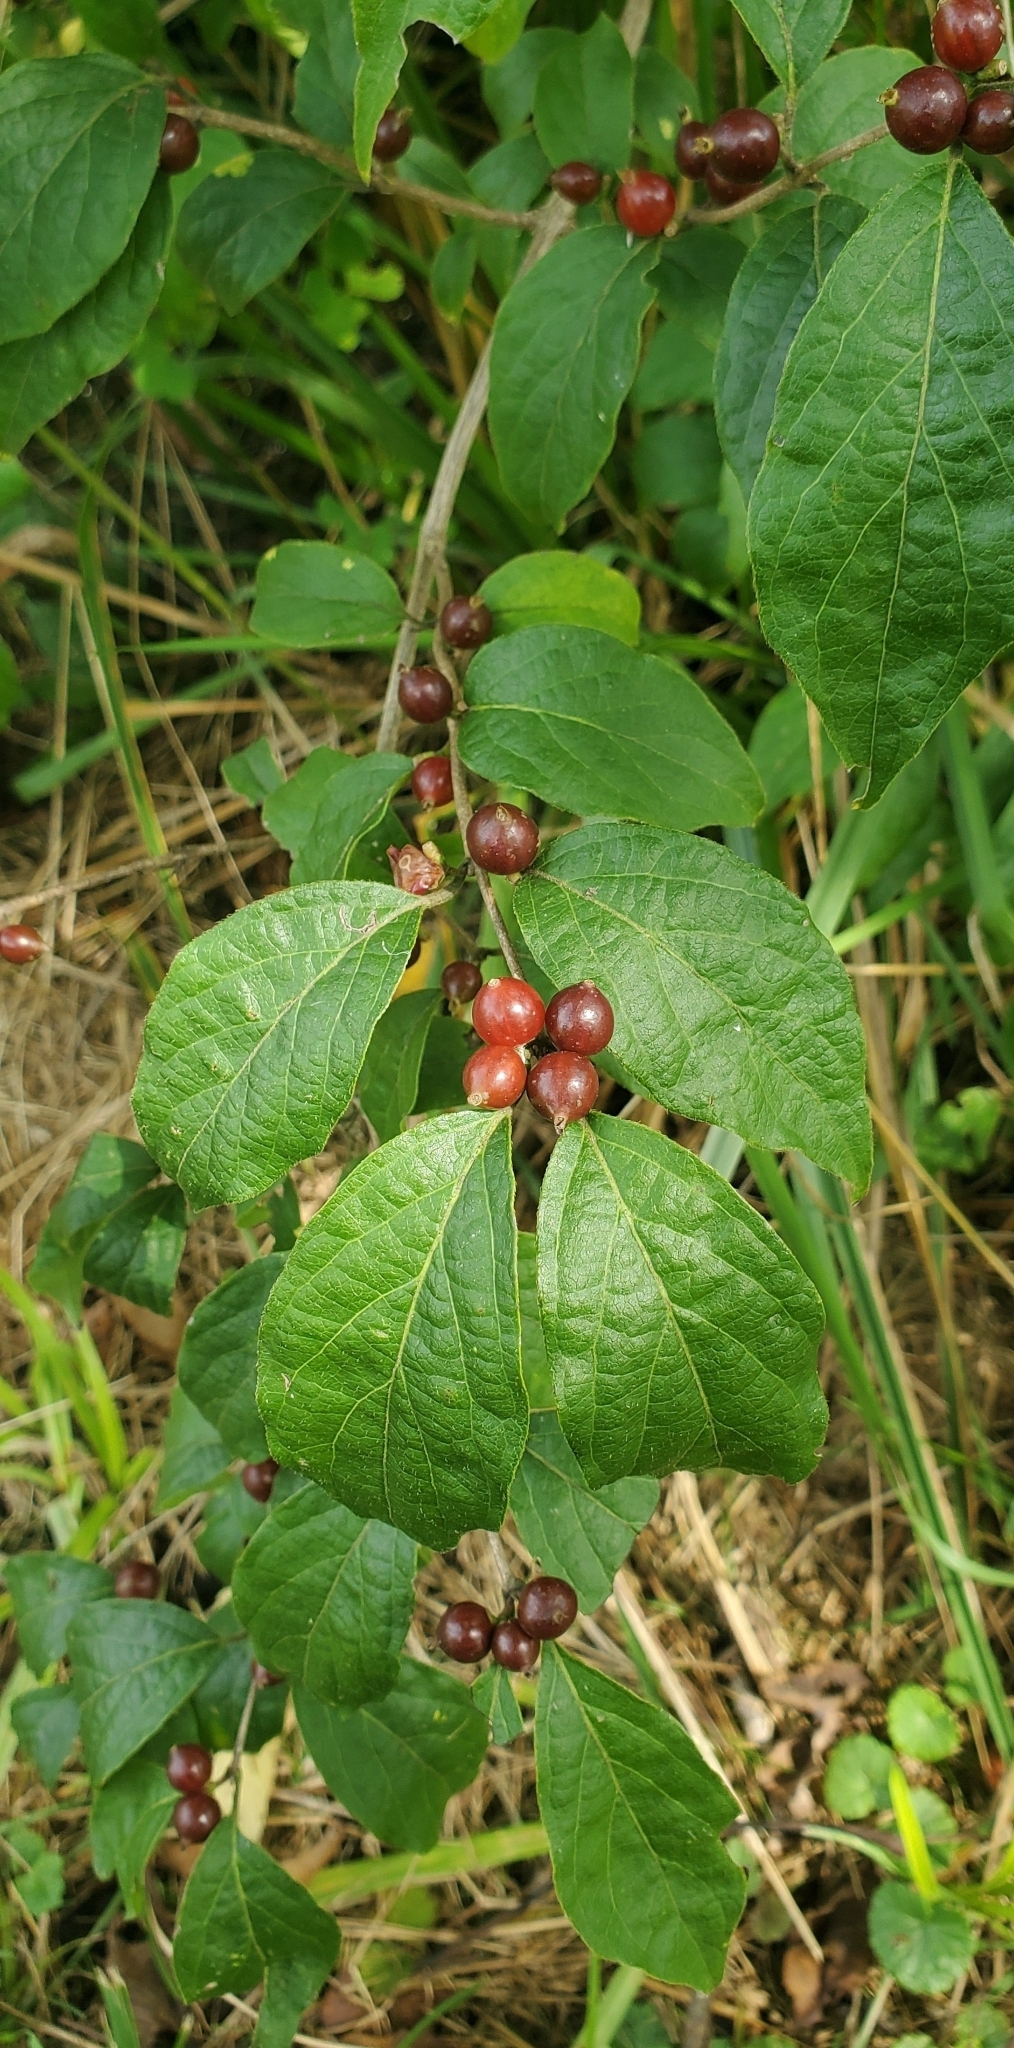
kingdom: Plantae
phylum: Tracheophyta
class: Magnoliopsida
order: Dipsacales
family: Caprifoliaceae
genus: Lonicera
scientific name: Lonicera maackii
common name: Amur honeysuckle
